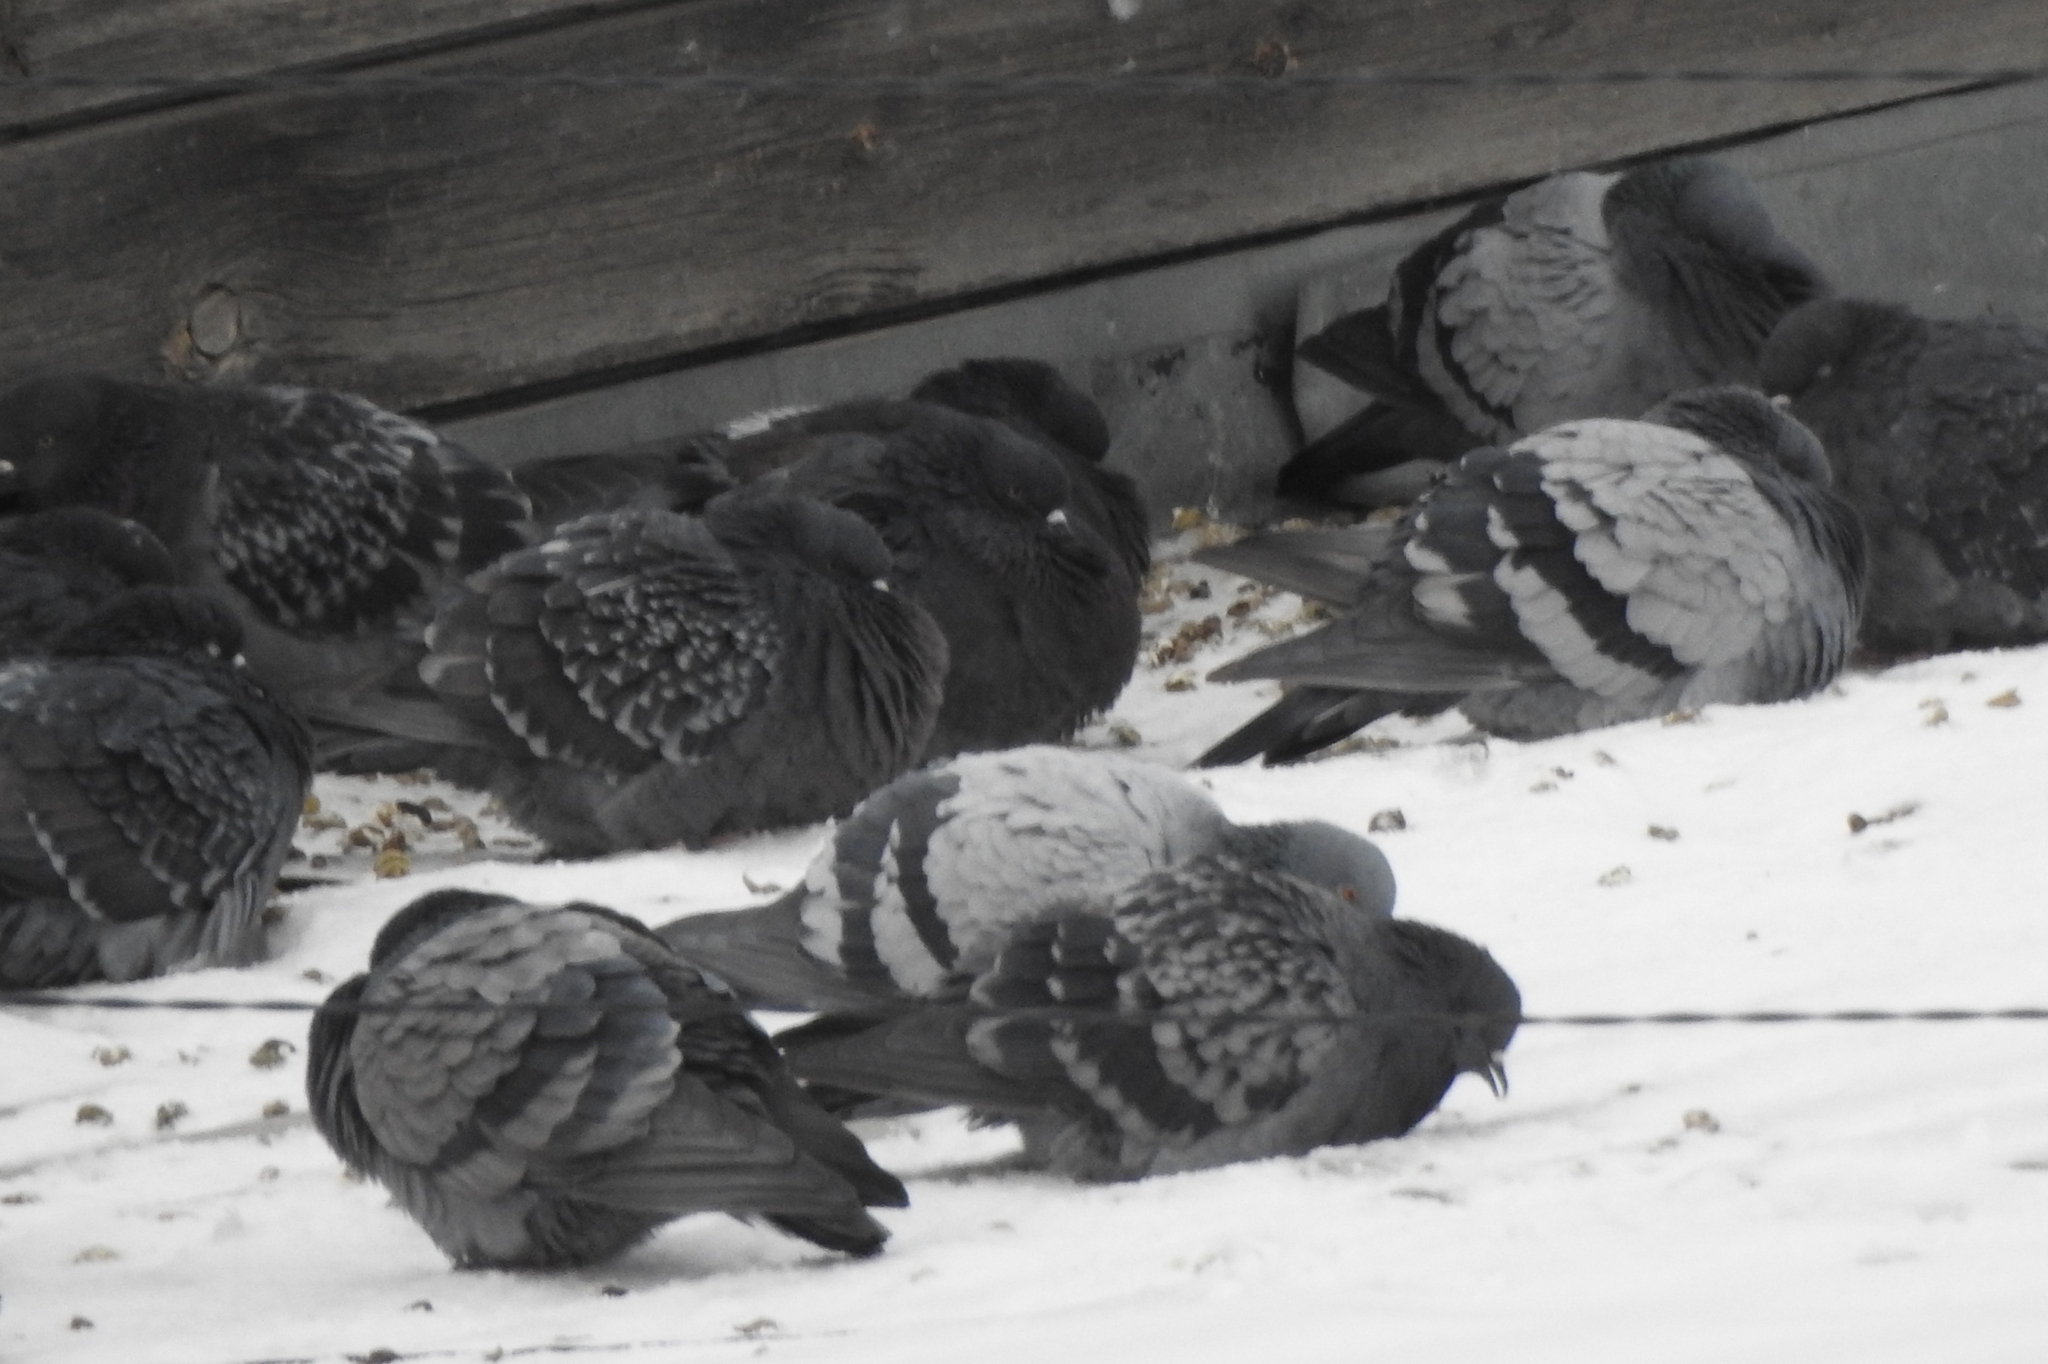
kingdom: Animalia
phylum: Chordata
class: Aves
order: Columbiformes
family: Columbidae
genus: Columba
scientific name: Columba livia
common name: Rock pigeon
